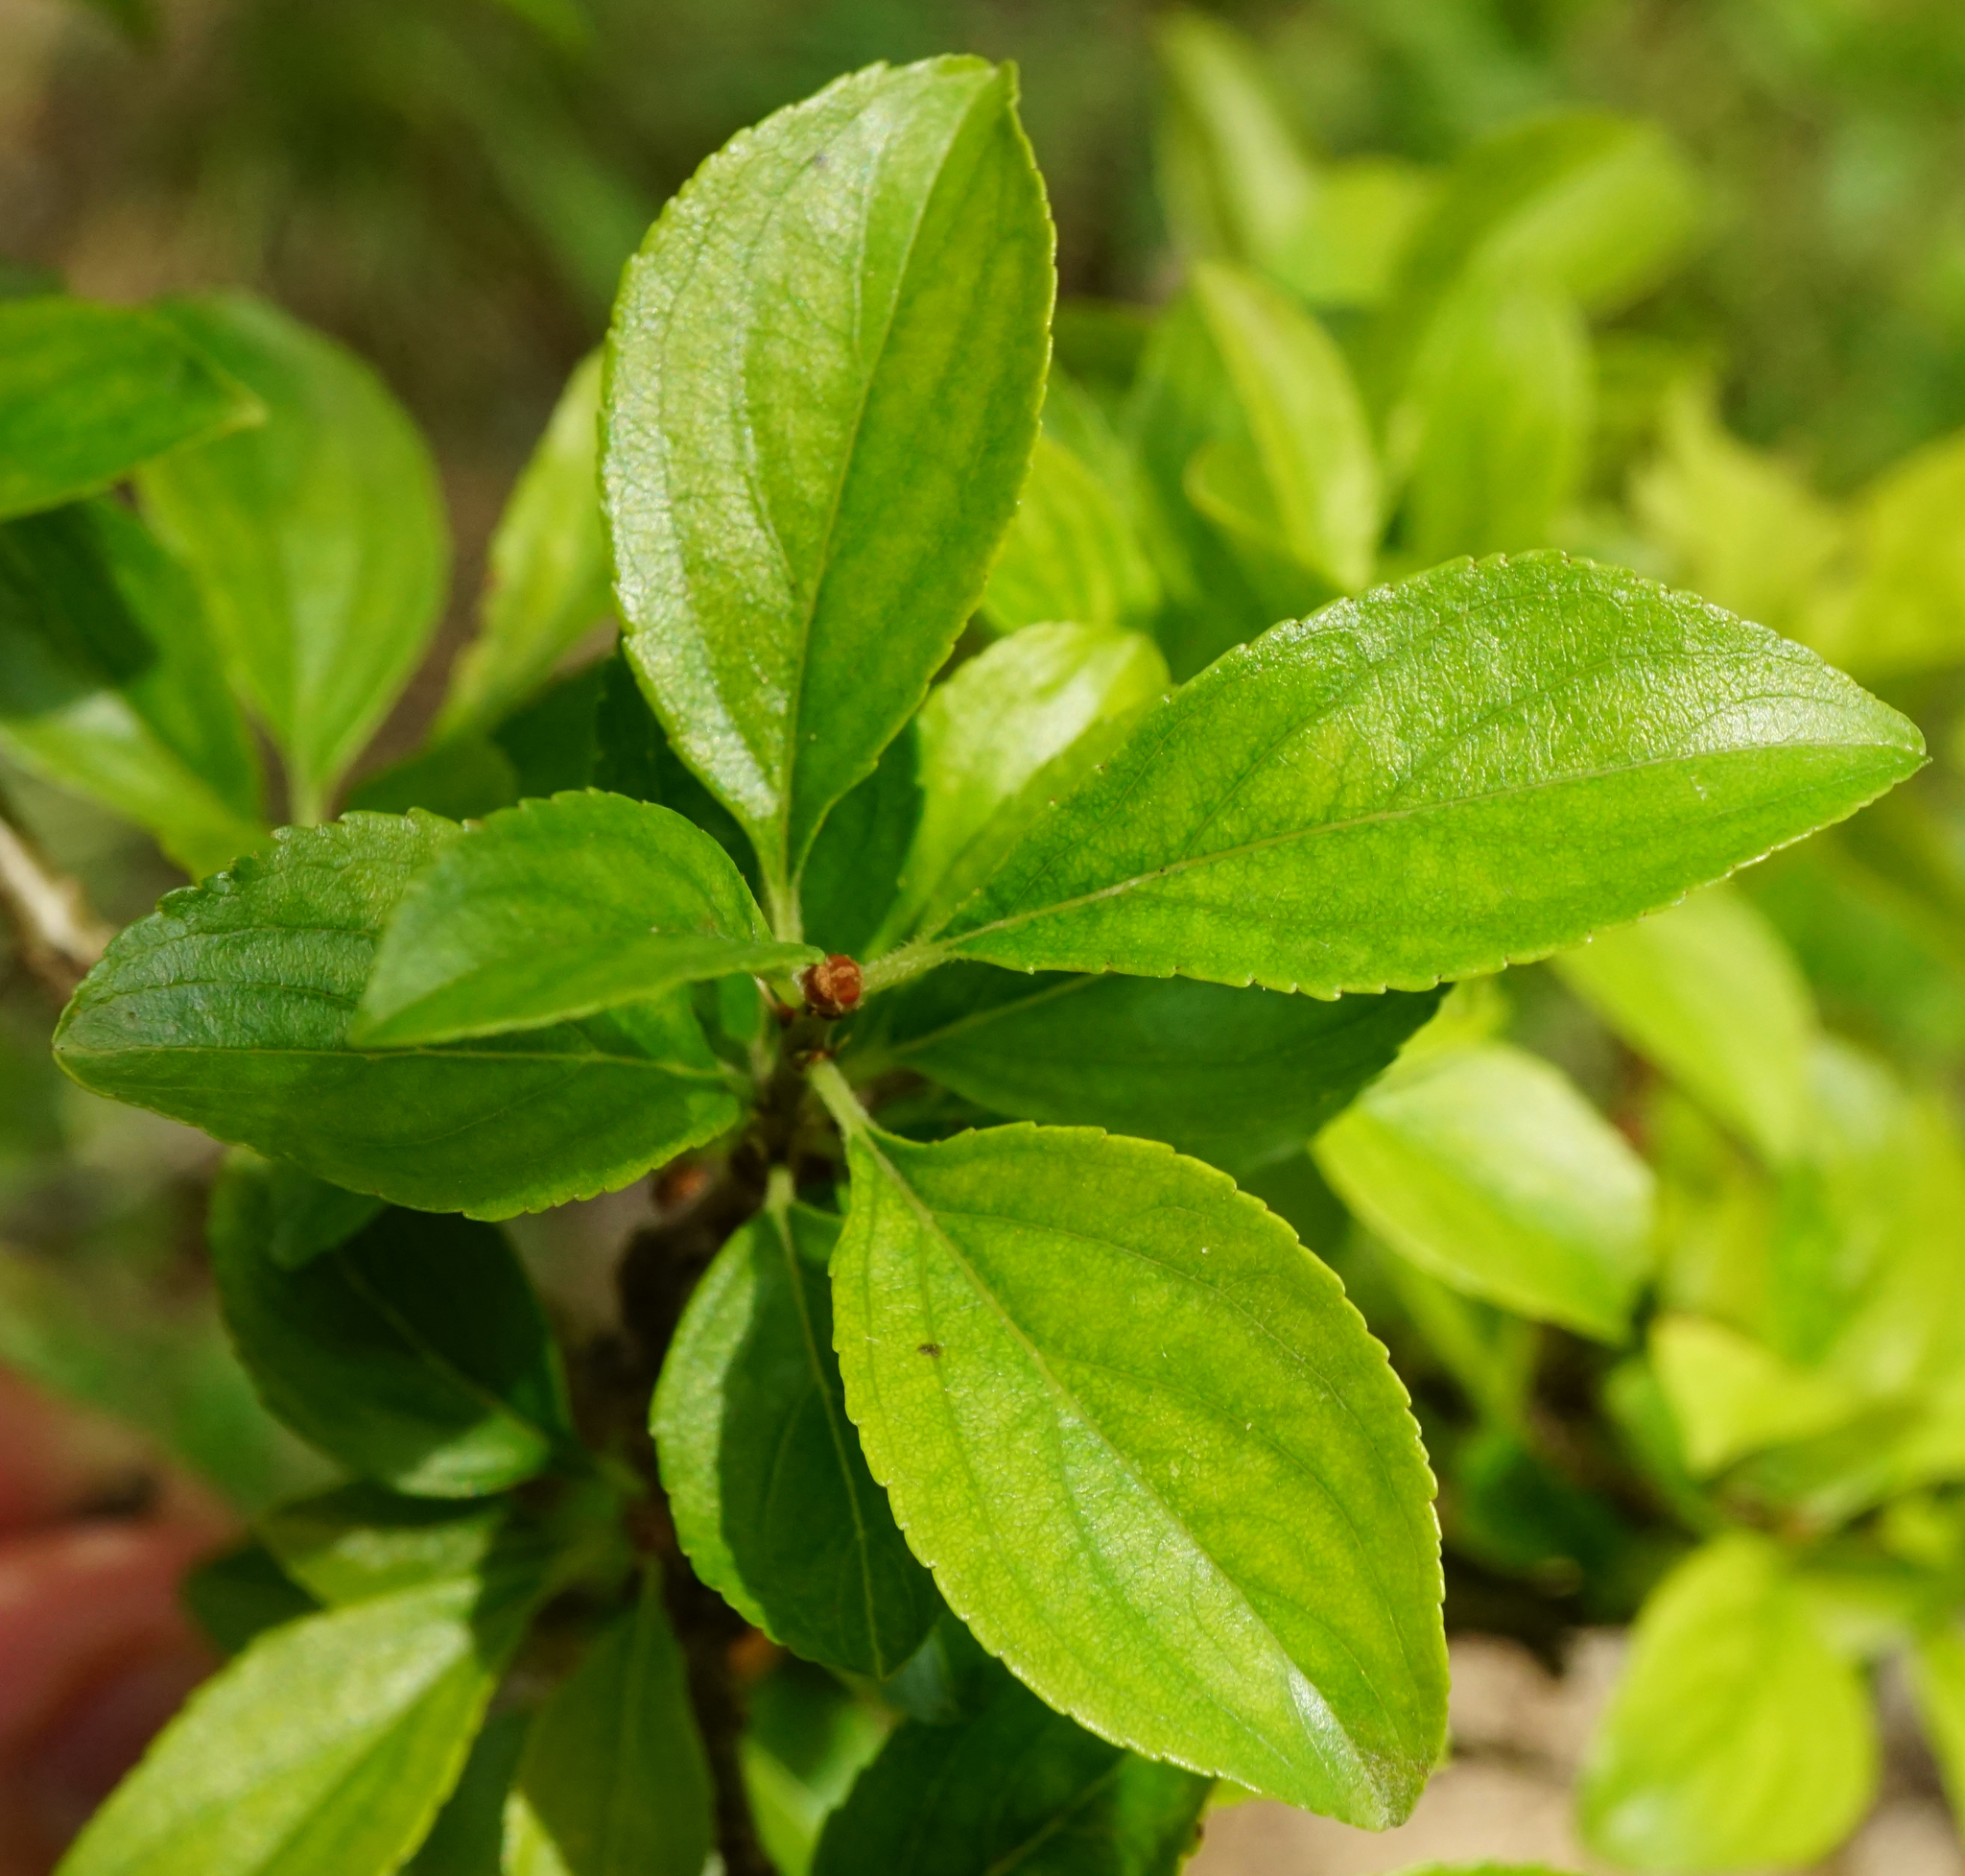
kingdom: Plantae
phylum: Tracheophyta
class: Magnoliopsida
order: Rosales
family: Rhamnaceae
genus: Rhamnus
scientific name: Rhamnus cathartica
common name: Common buckthorn
